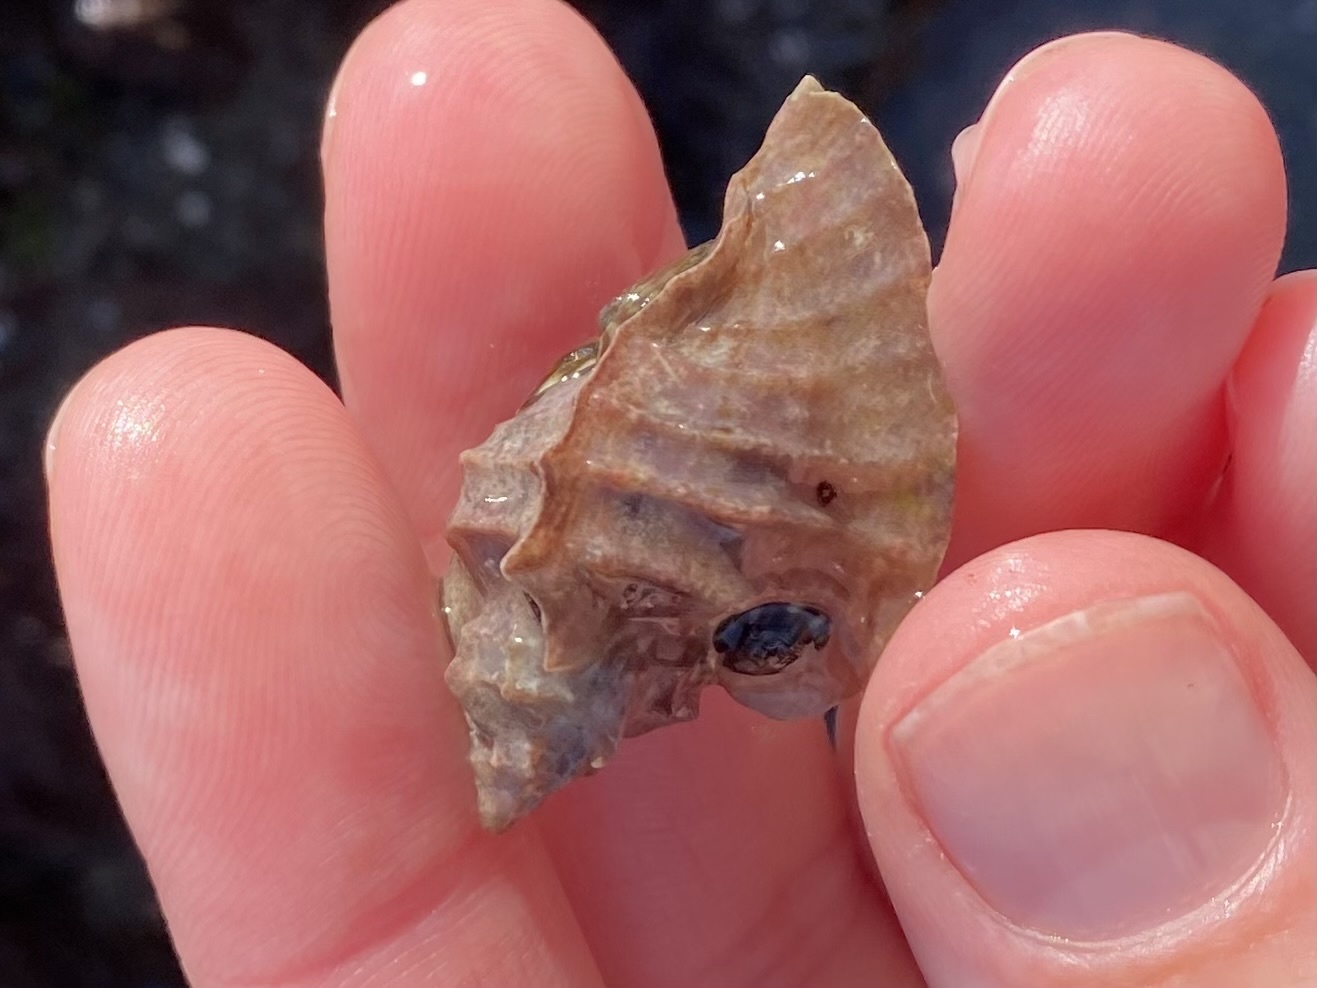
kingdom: Animalia
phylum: Mollusca
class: Gastropoda
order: Neogastropoda
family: Muricidae
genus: Ceratostoma
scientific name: Ceratostoma foliatum
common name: Foliate thorn purpura
